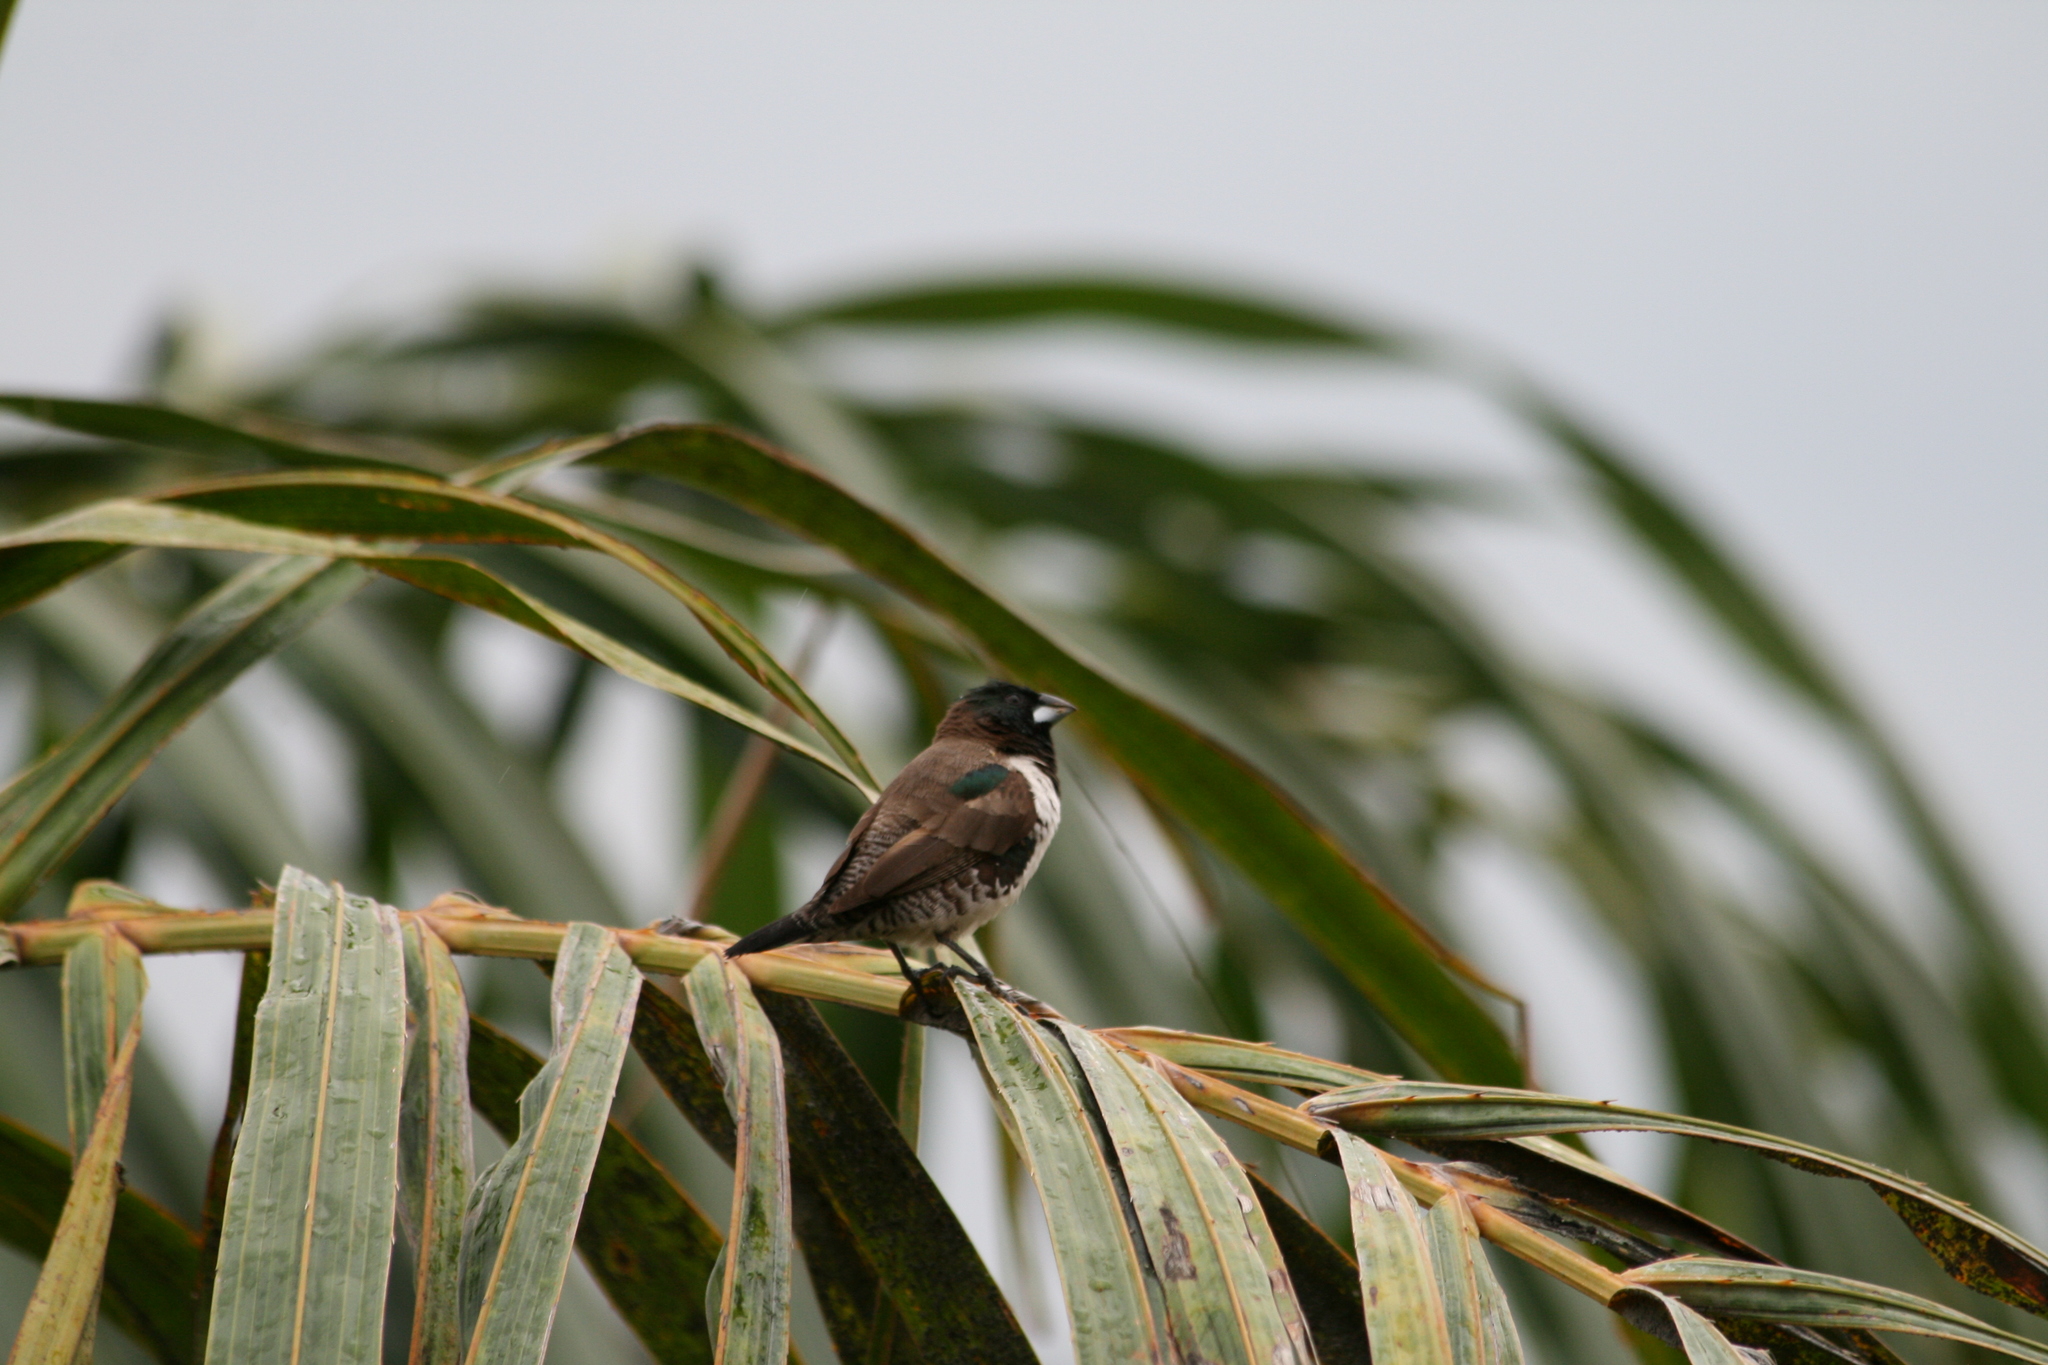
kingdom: Animalia
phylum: Chordata
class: Aves
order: Passeriformes
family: Estrildidae
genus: Lonchura
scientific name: Lonchura cucullata
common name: Bronze mannikin
